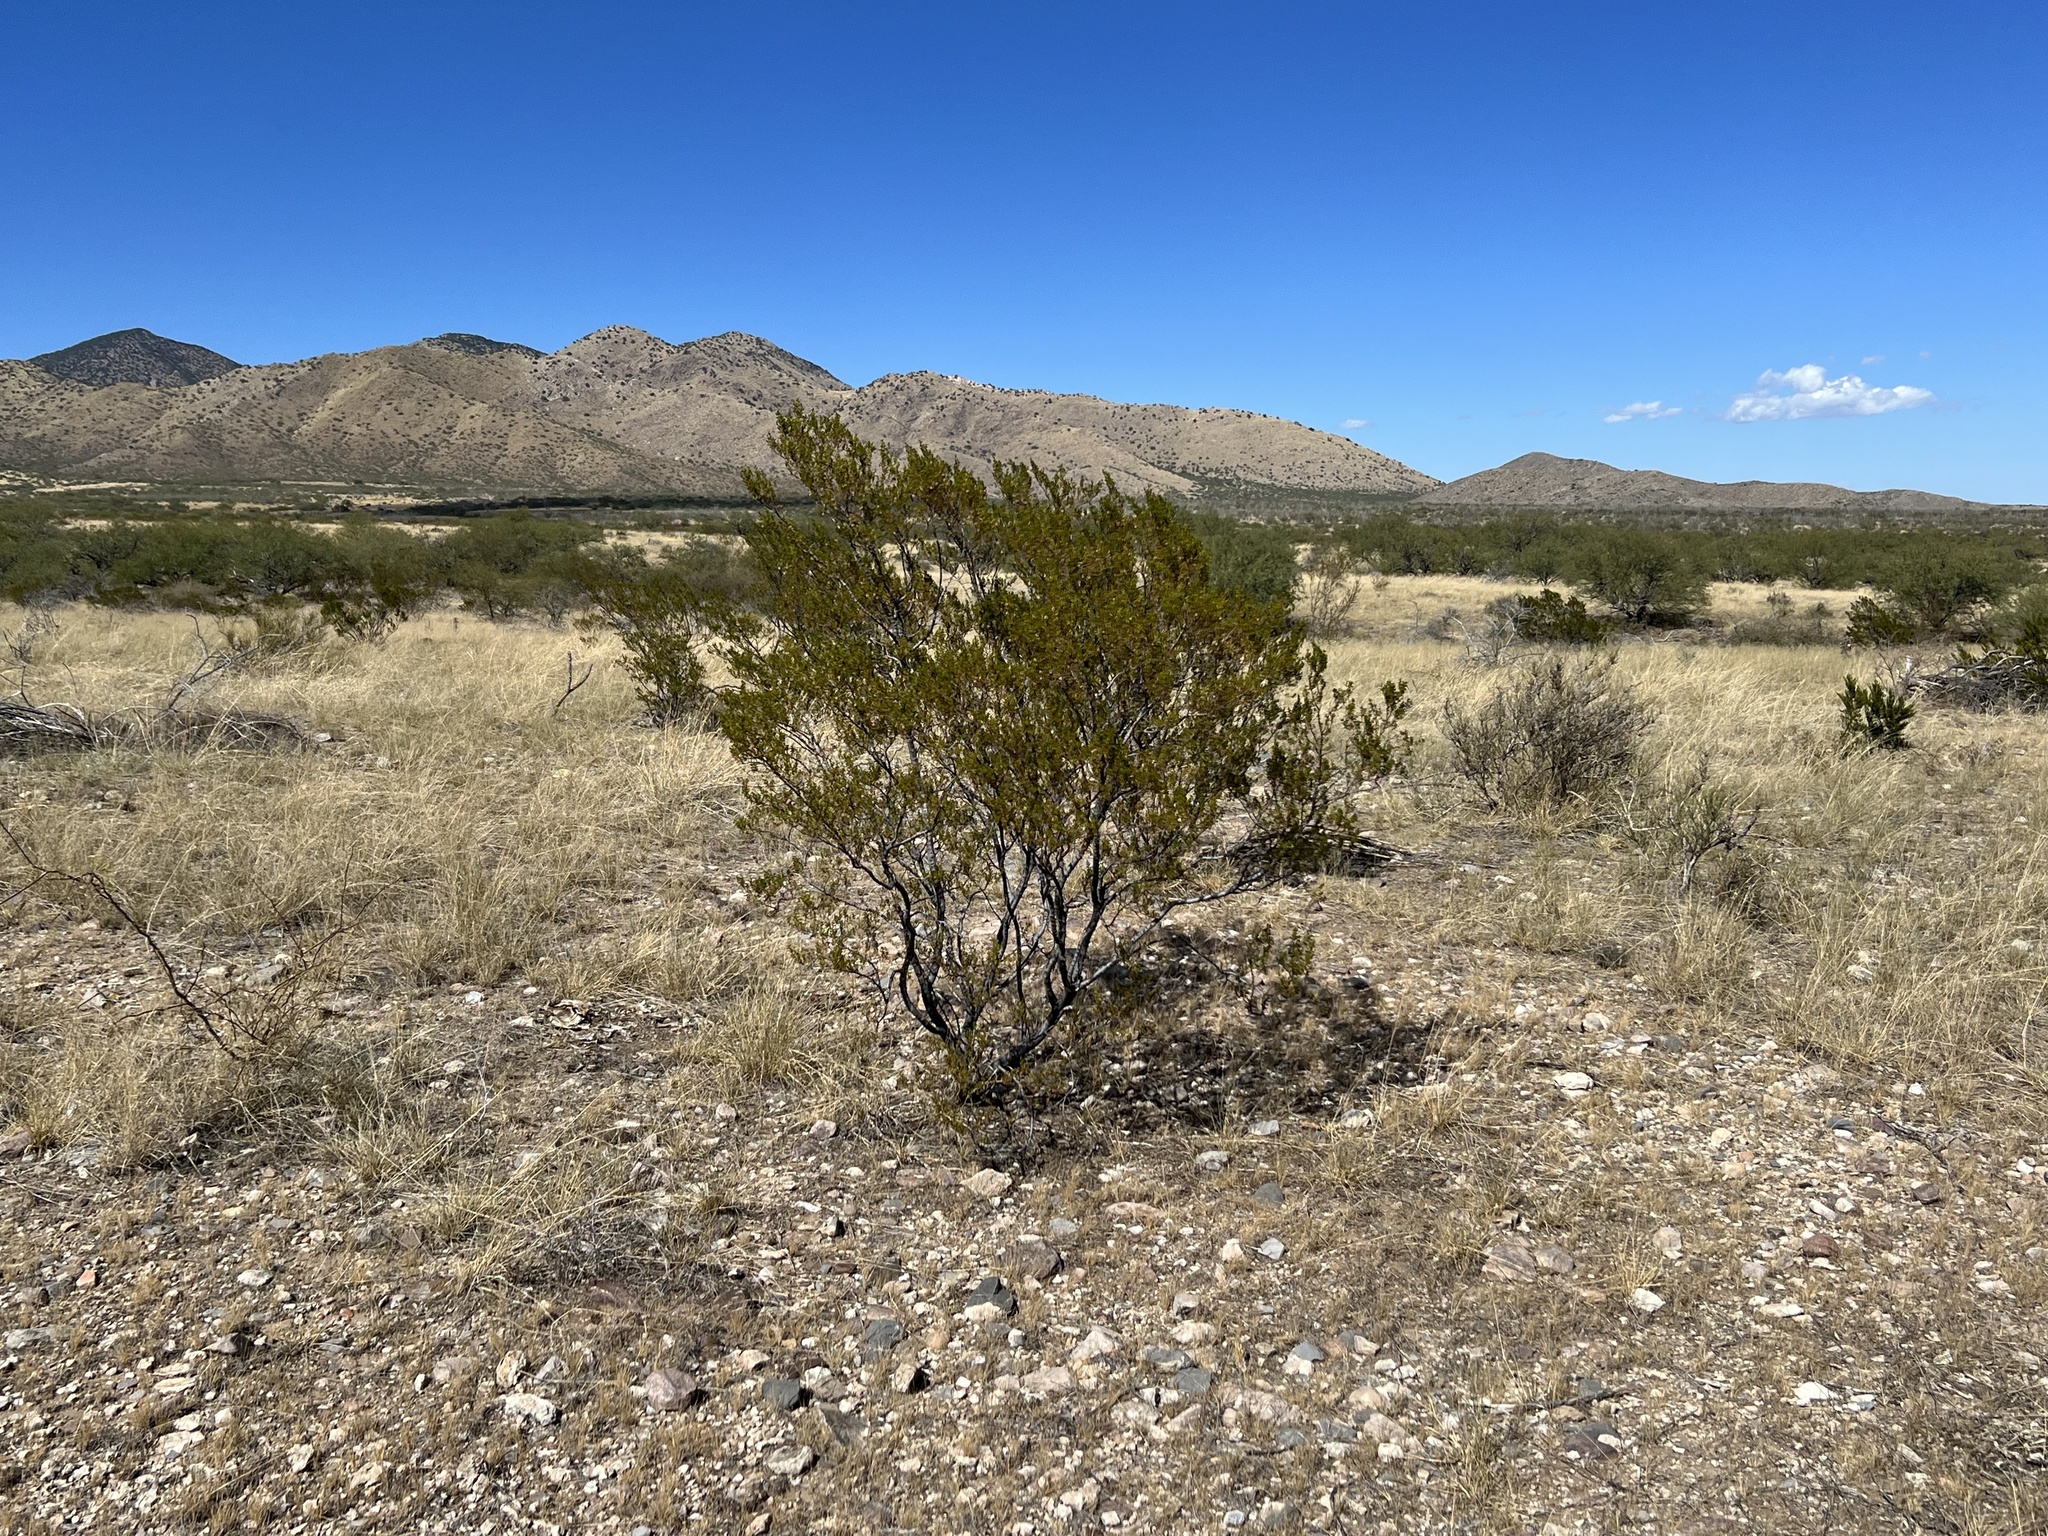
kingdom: Plantae
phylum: Tracheophyta
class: Magnoliopsida
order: Zygophyllales
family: Zygophyllaceae
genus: Larrea
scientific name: Larrea tridentata
